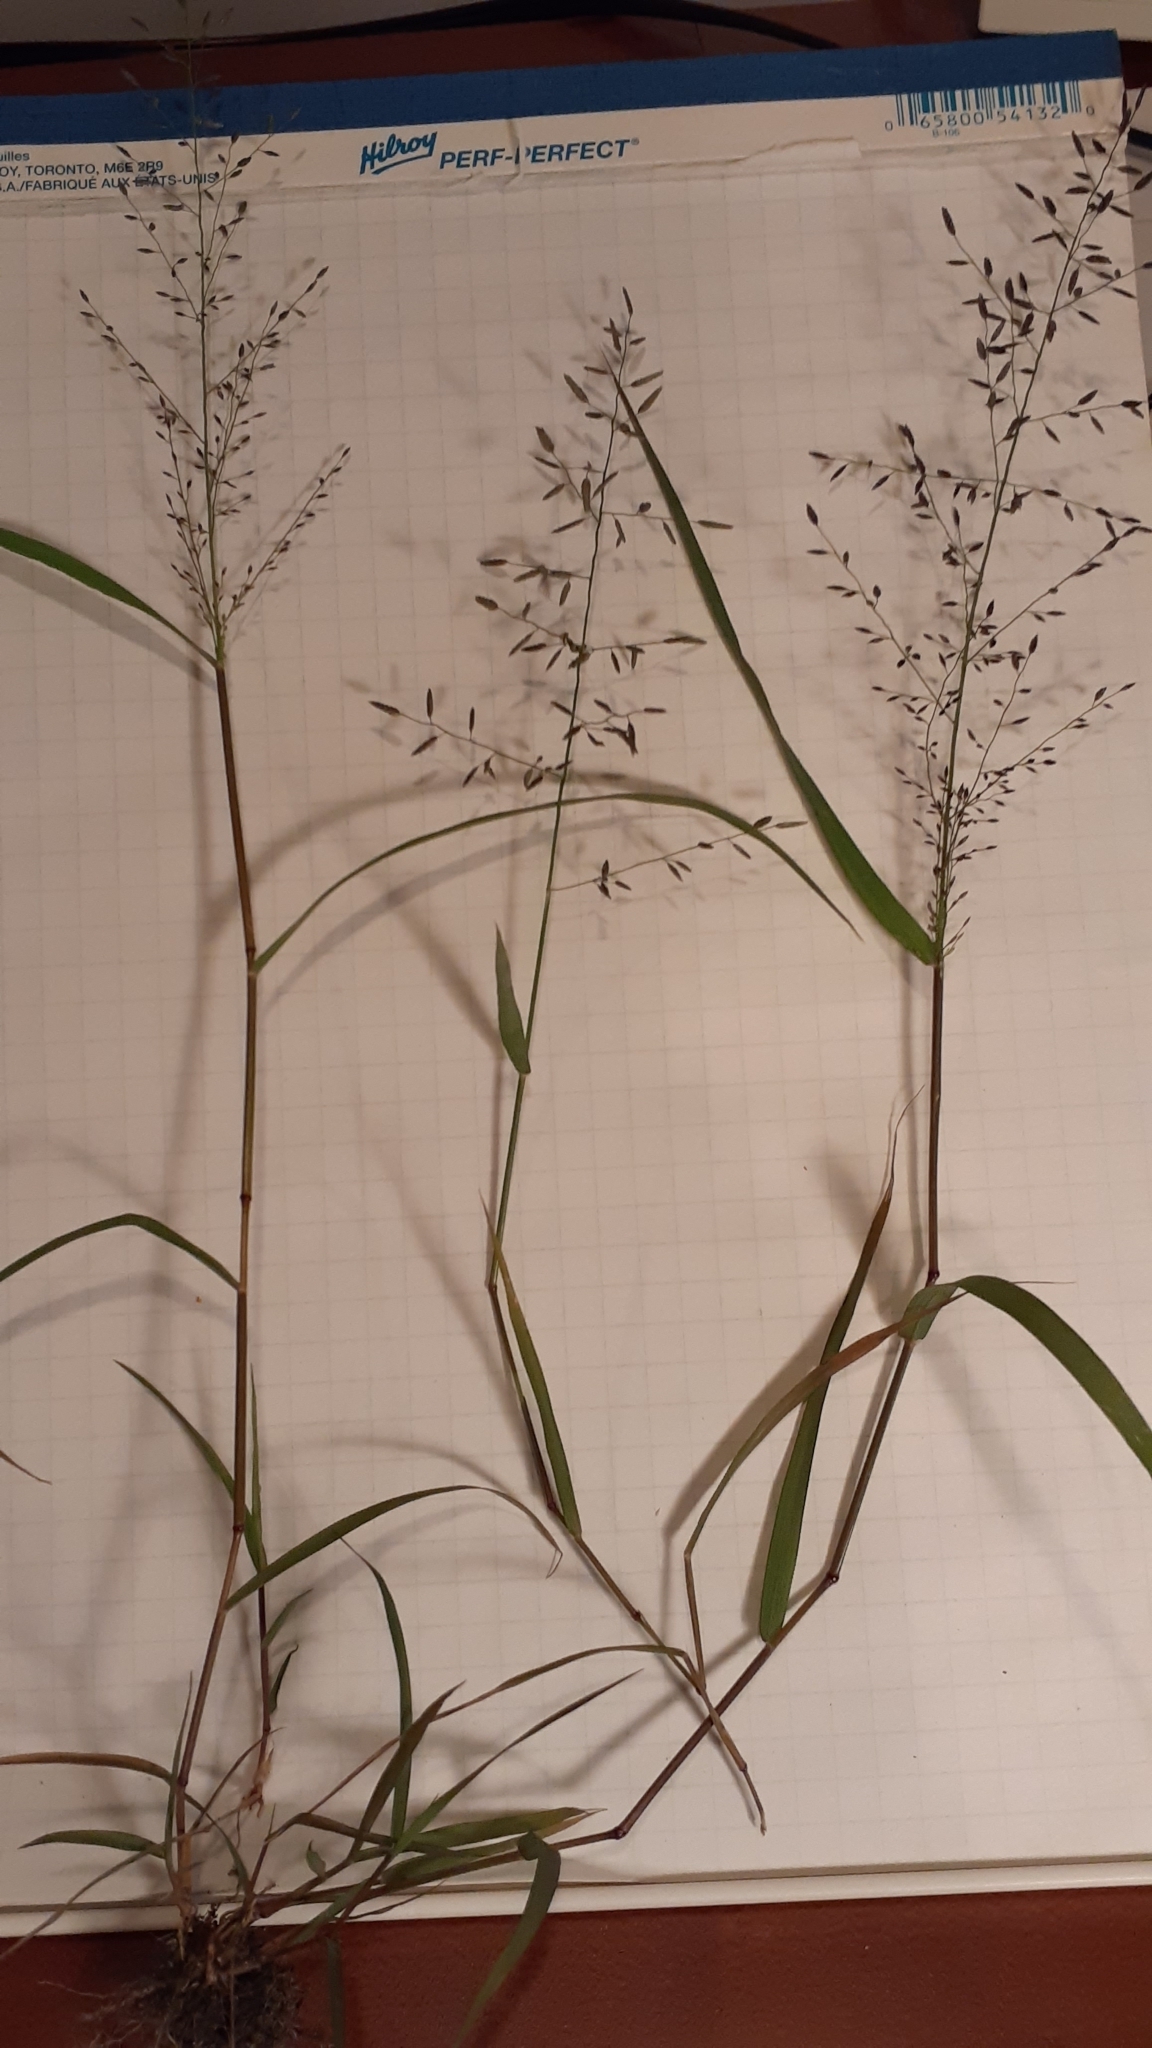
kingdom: Plantae
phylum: Tracheophyta
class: Liliopsida
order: Poales
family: Poaceae
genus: Eragrostis
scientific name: Eragrostis minor
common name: Small love-grass
